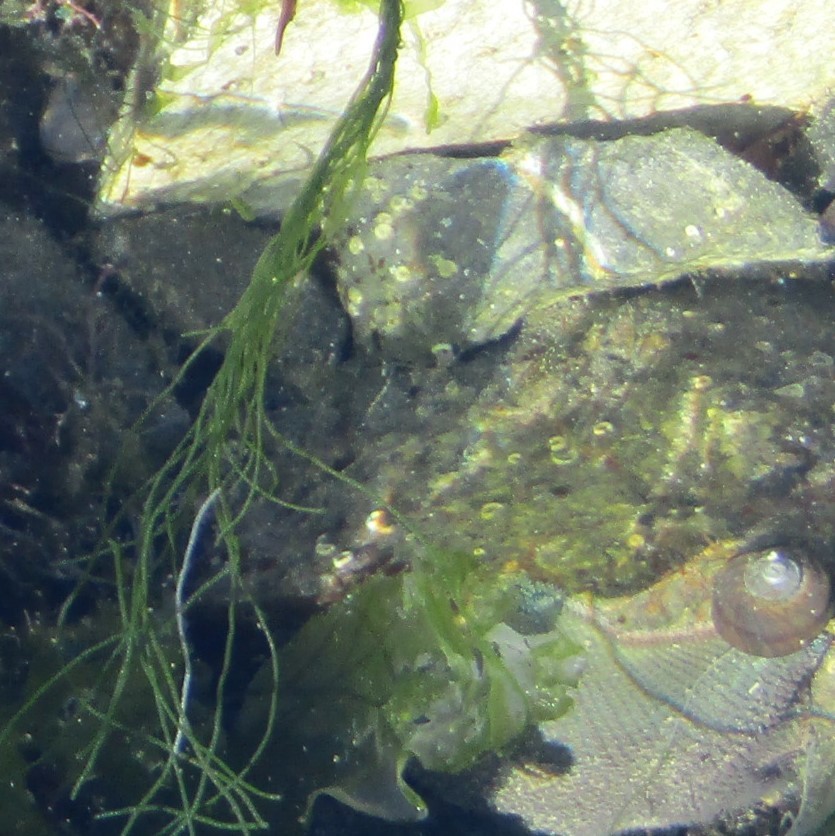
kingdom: Animalia
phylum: Echinodermata
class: Asteroidea
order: Valvatida
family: Asterinidae
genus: Patiriella
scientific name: Patiriella regularis
